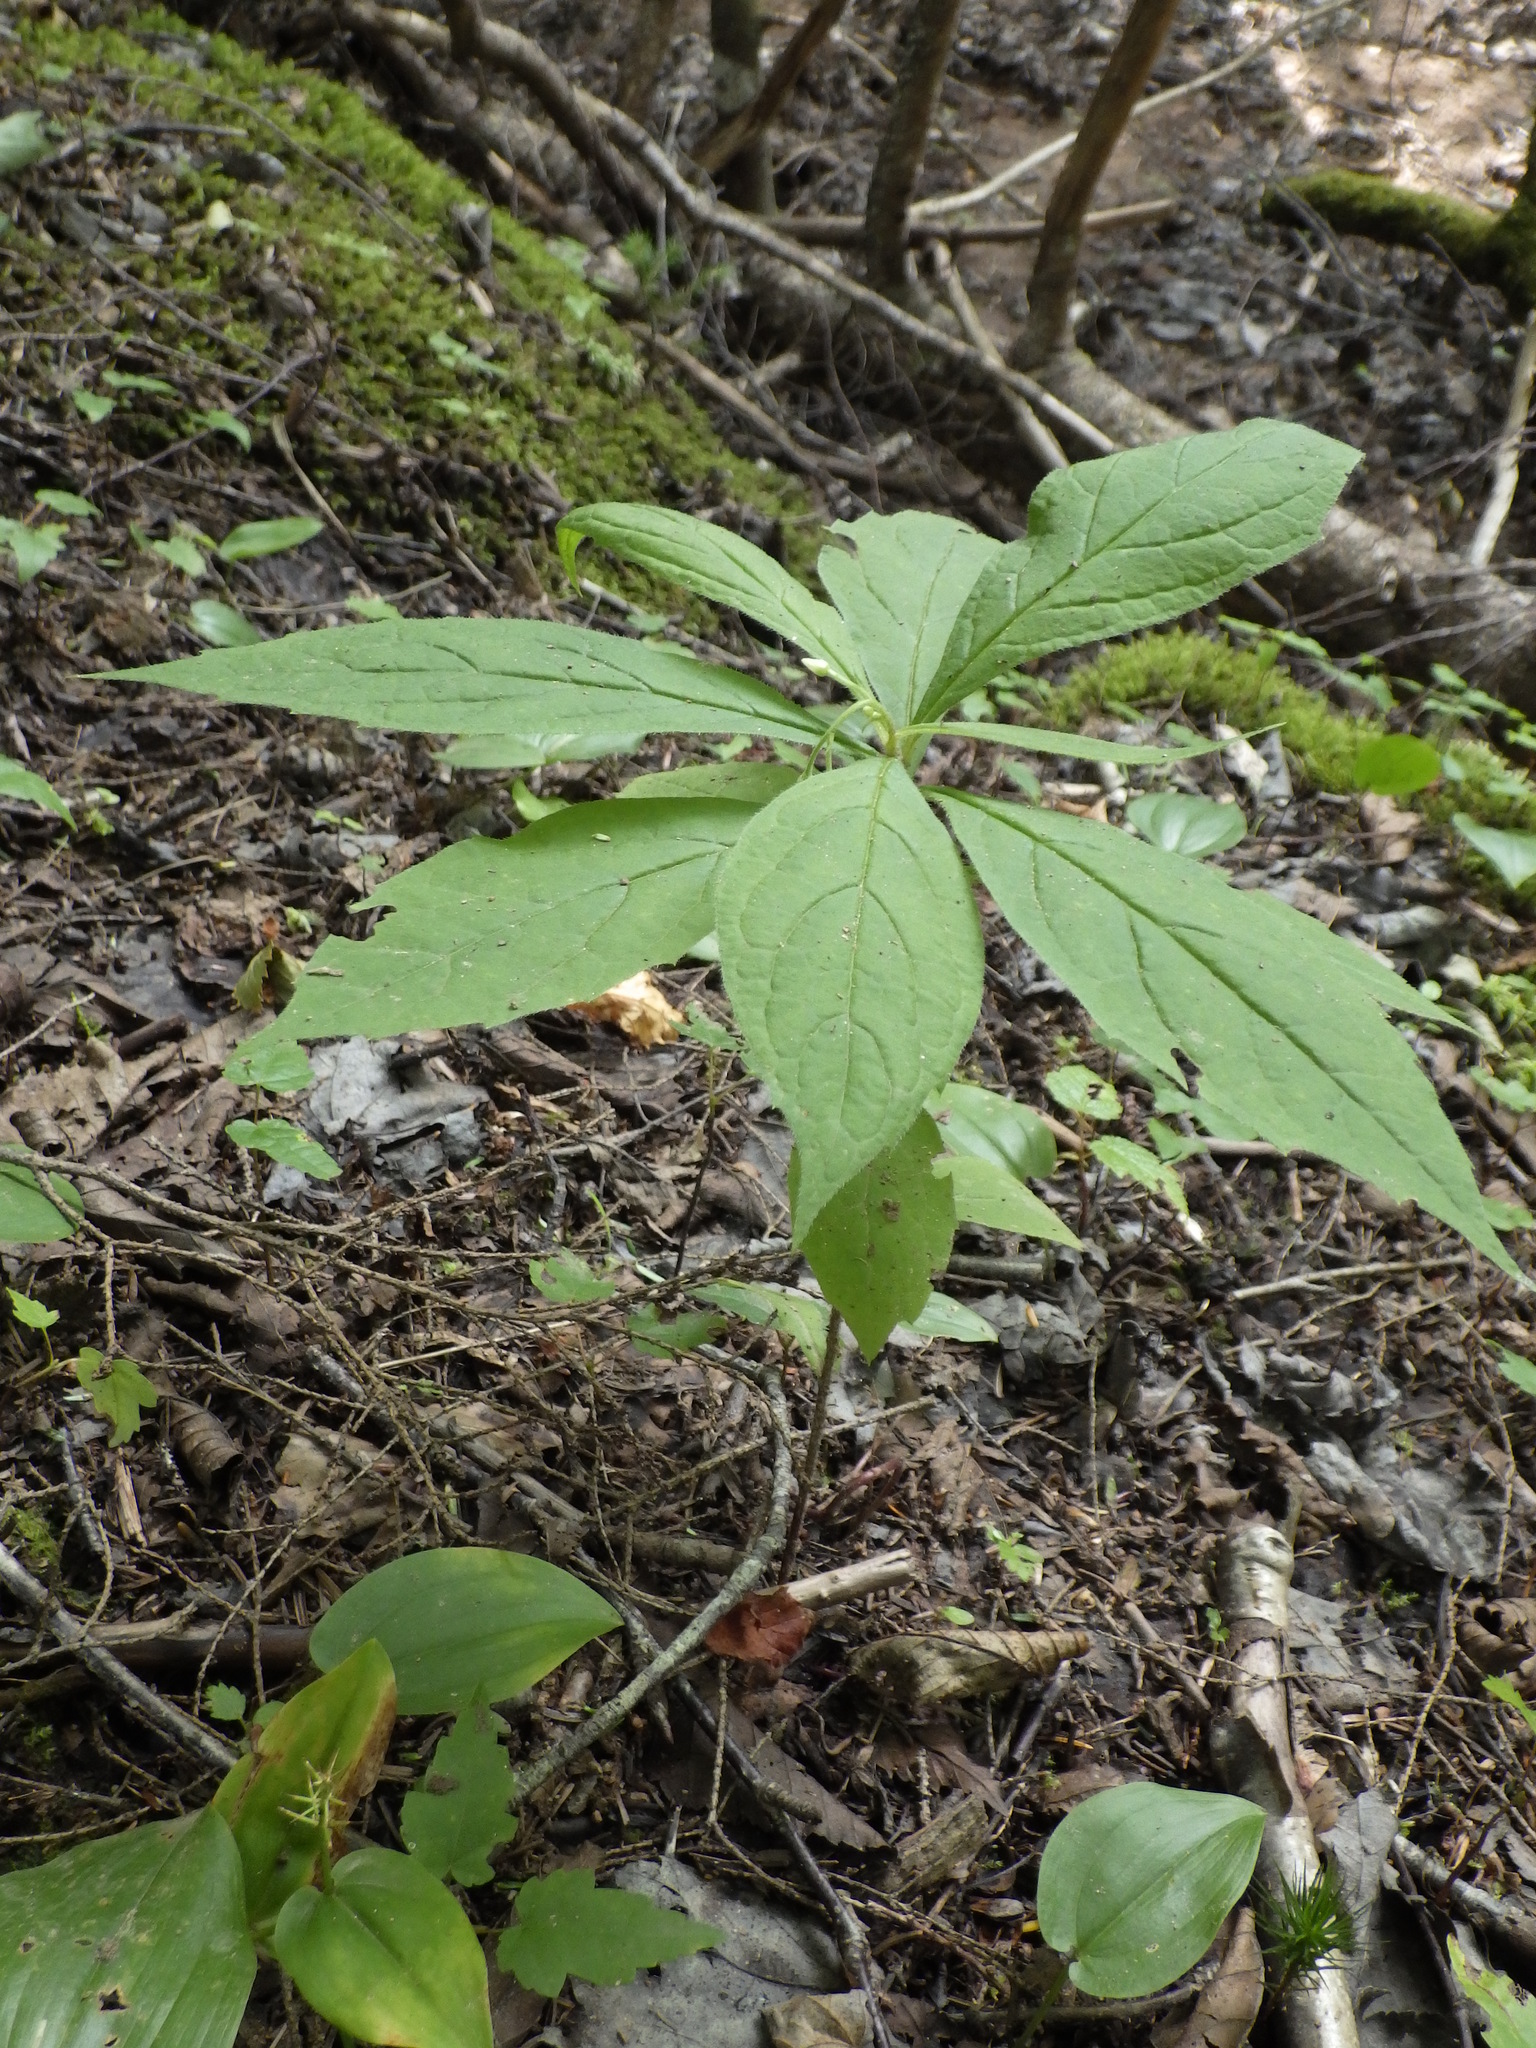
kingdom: Plantae
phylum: Tracheophyta
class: Magnoliopsida
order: Asterales
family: Asteraceae
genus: Oclemena
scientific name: Oclemena acuminata
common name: Mountain aster
